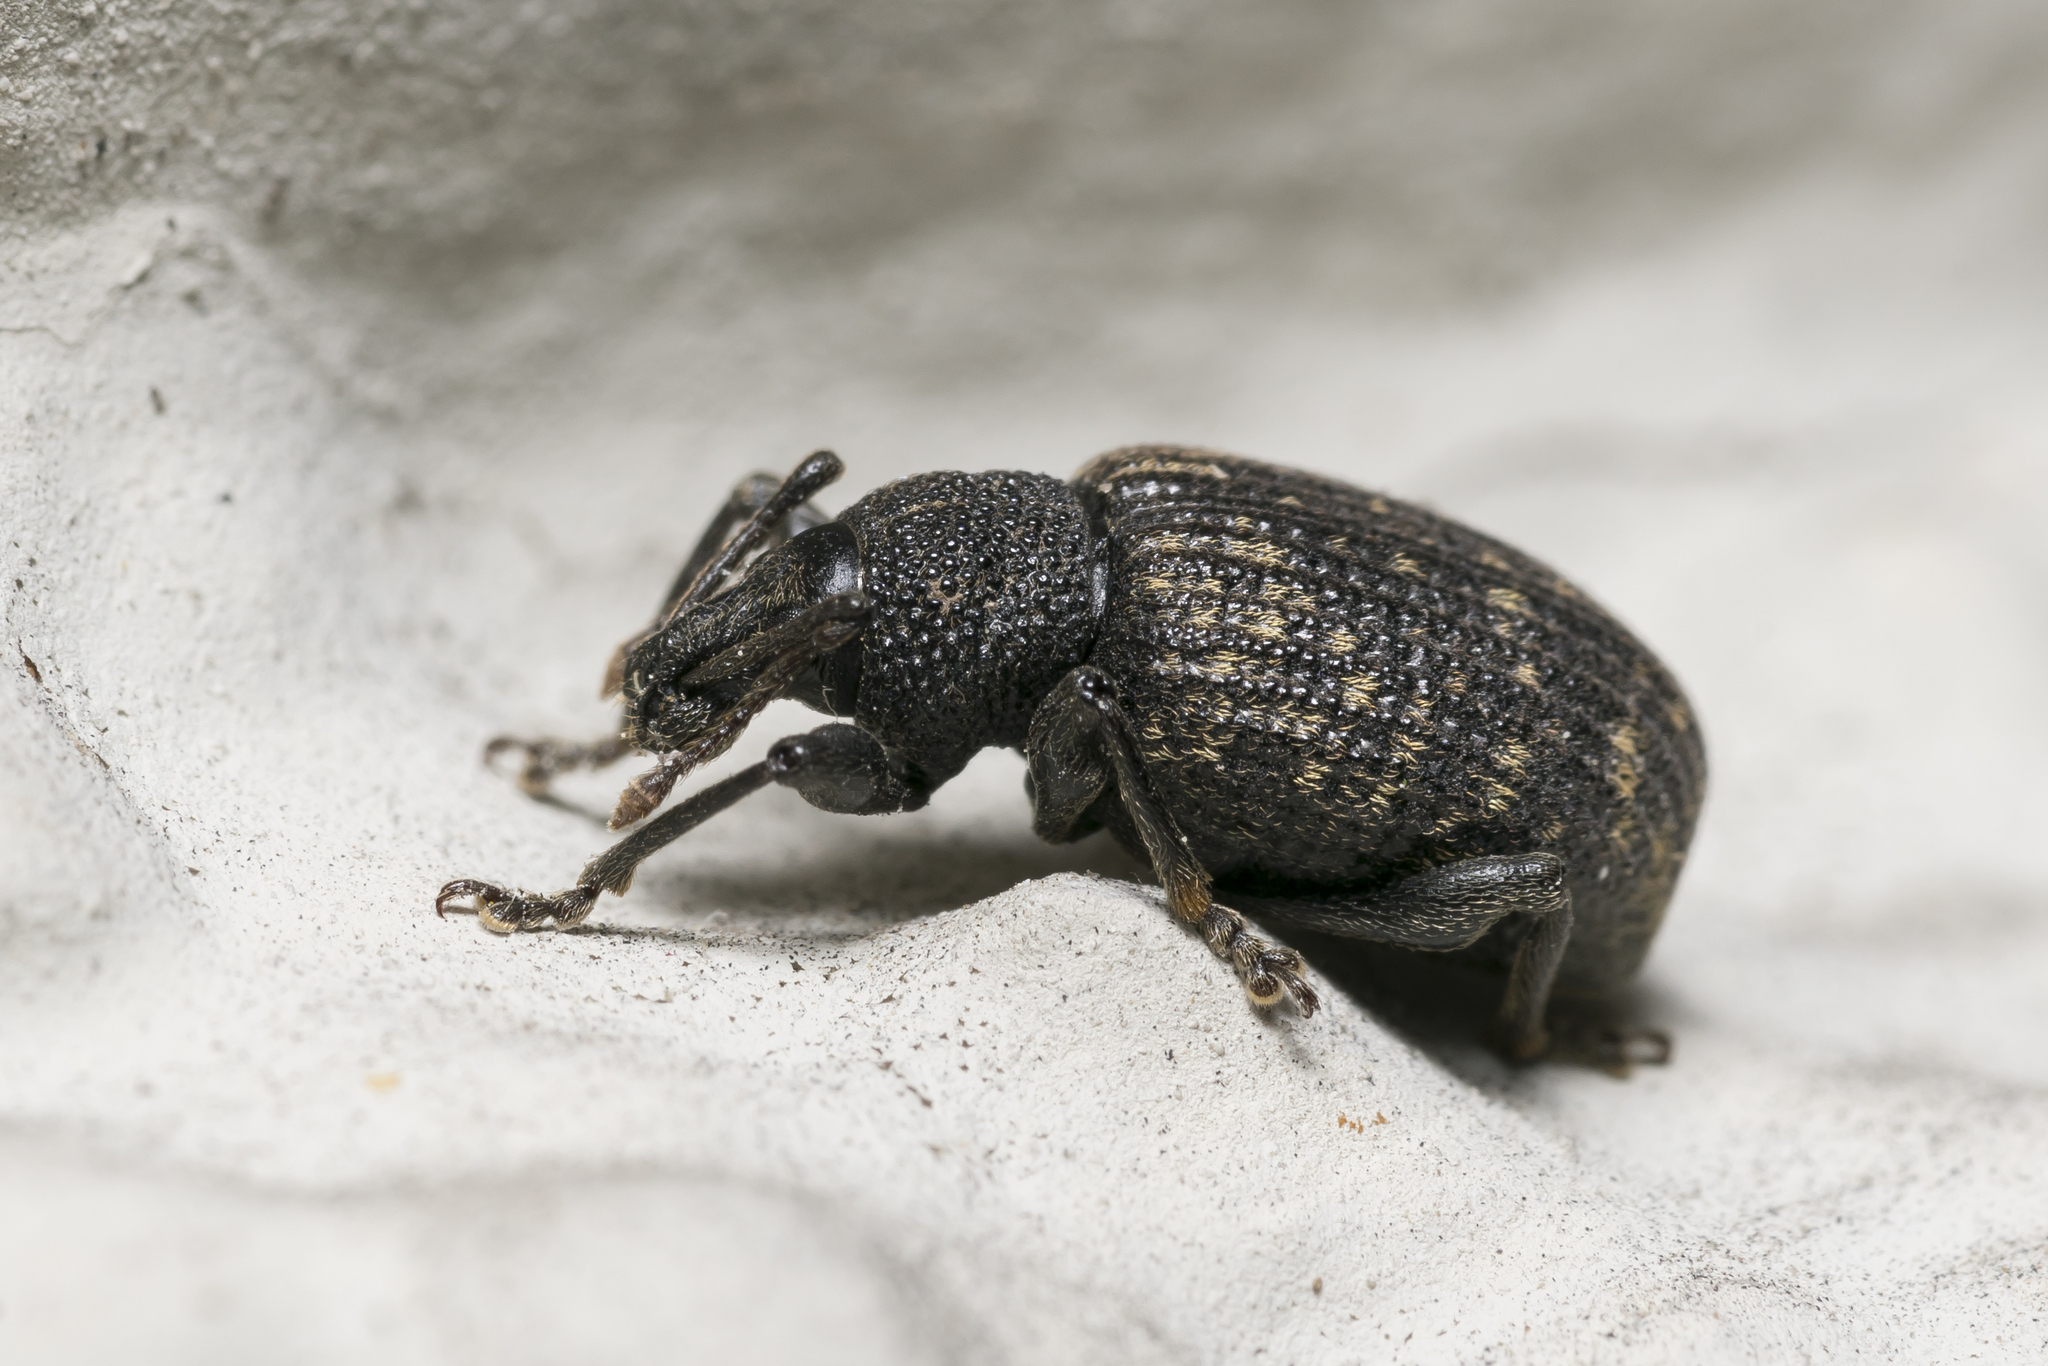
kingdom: Animalia
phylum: Arthropoda
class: Insecta
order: Coleoptera
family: Curculionidae
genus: Otiorhynchus
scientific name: Otiorhynchus sulcatus
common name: Black vine weevil
